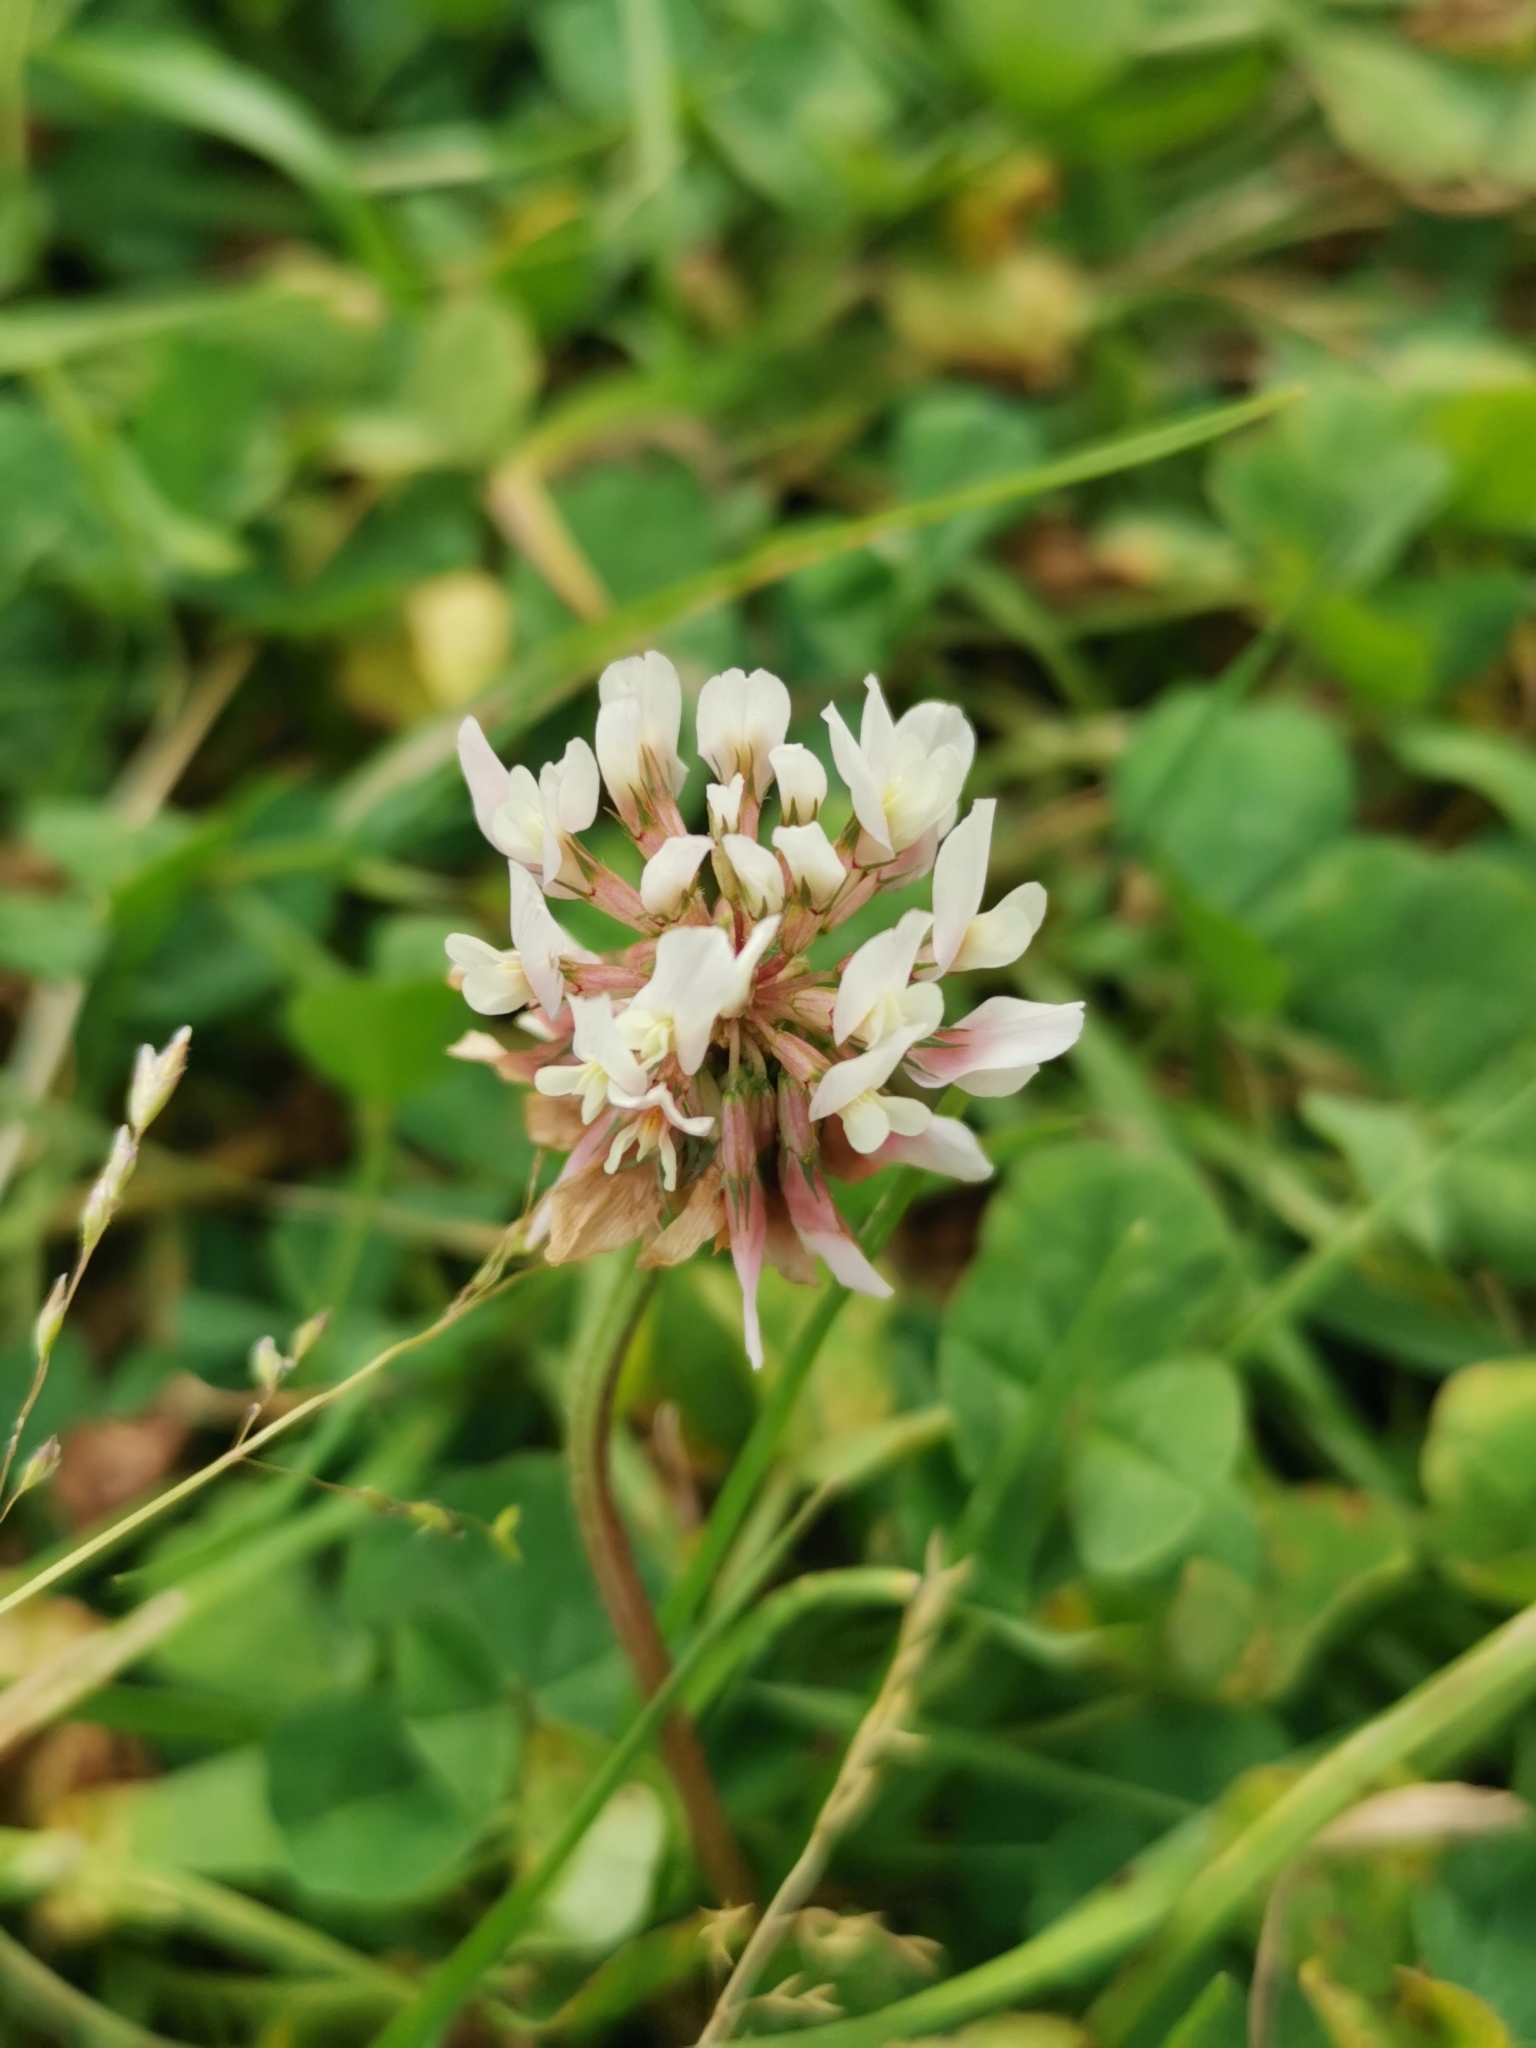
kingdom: Plantae
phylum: Tracheophyta
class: Magnoliopsida
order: Fabales
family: Fabaceae
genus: Trifolium
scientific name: Trifolium repens
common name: White clover
